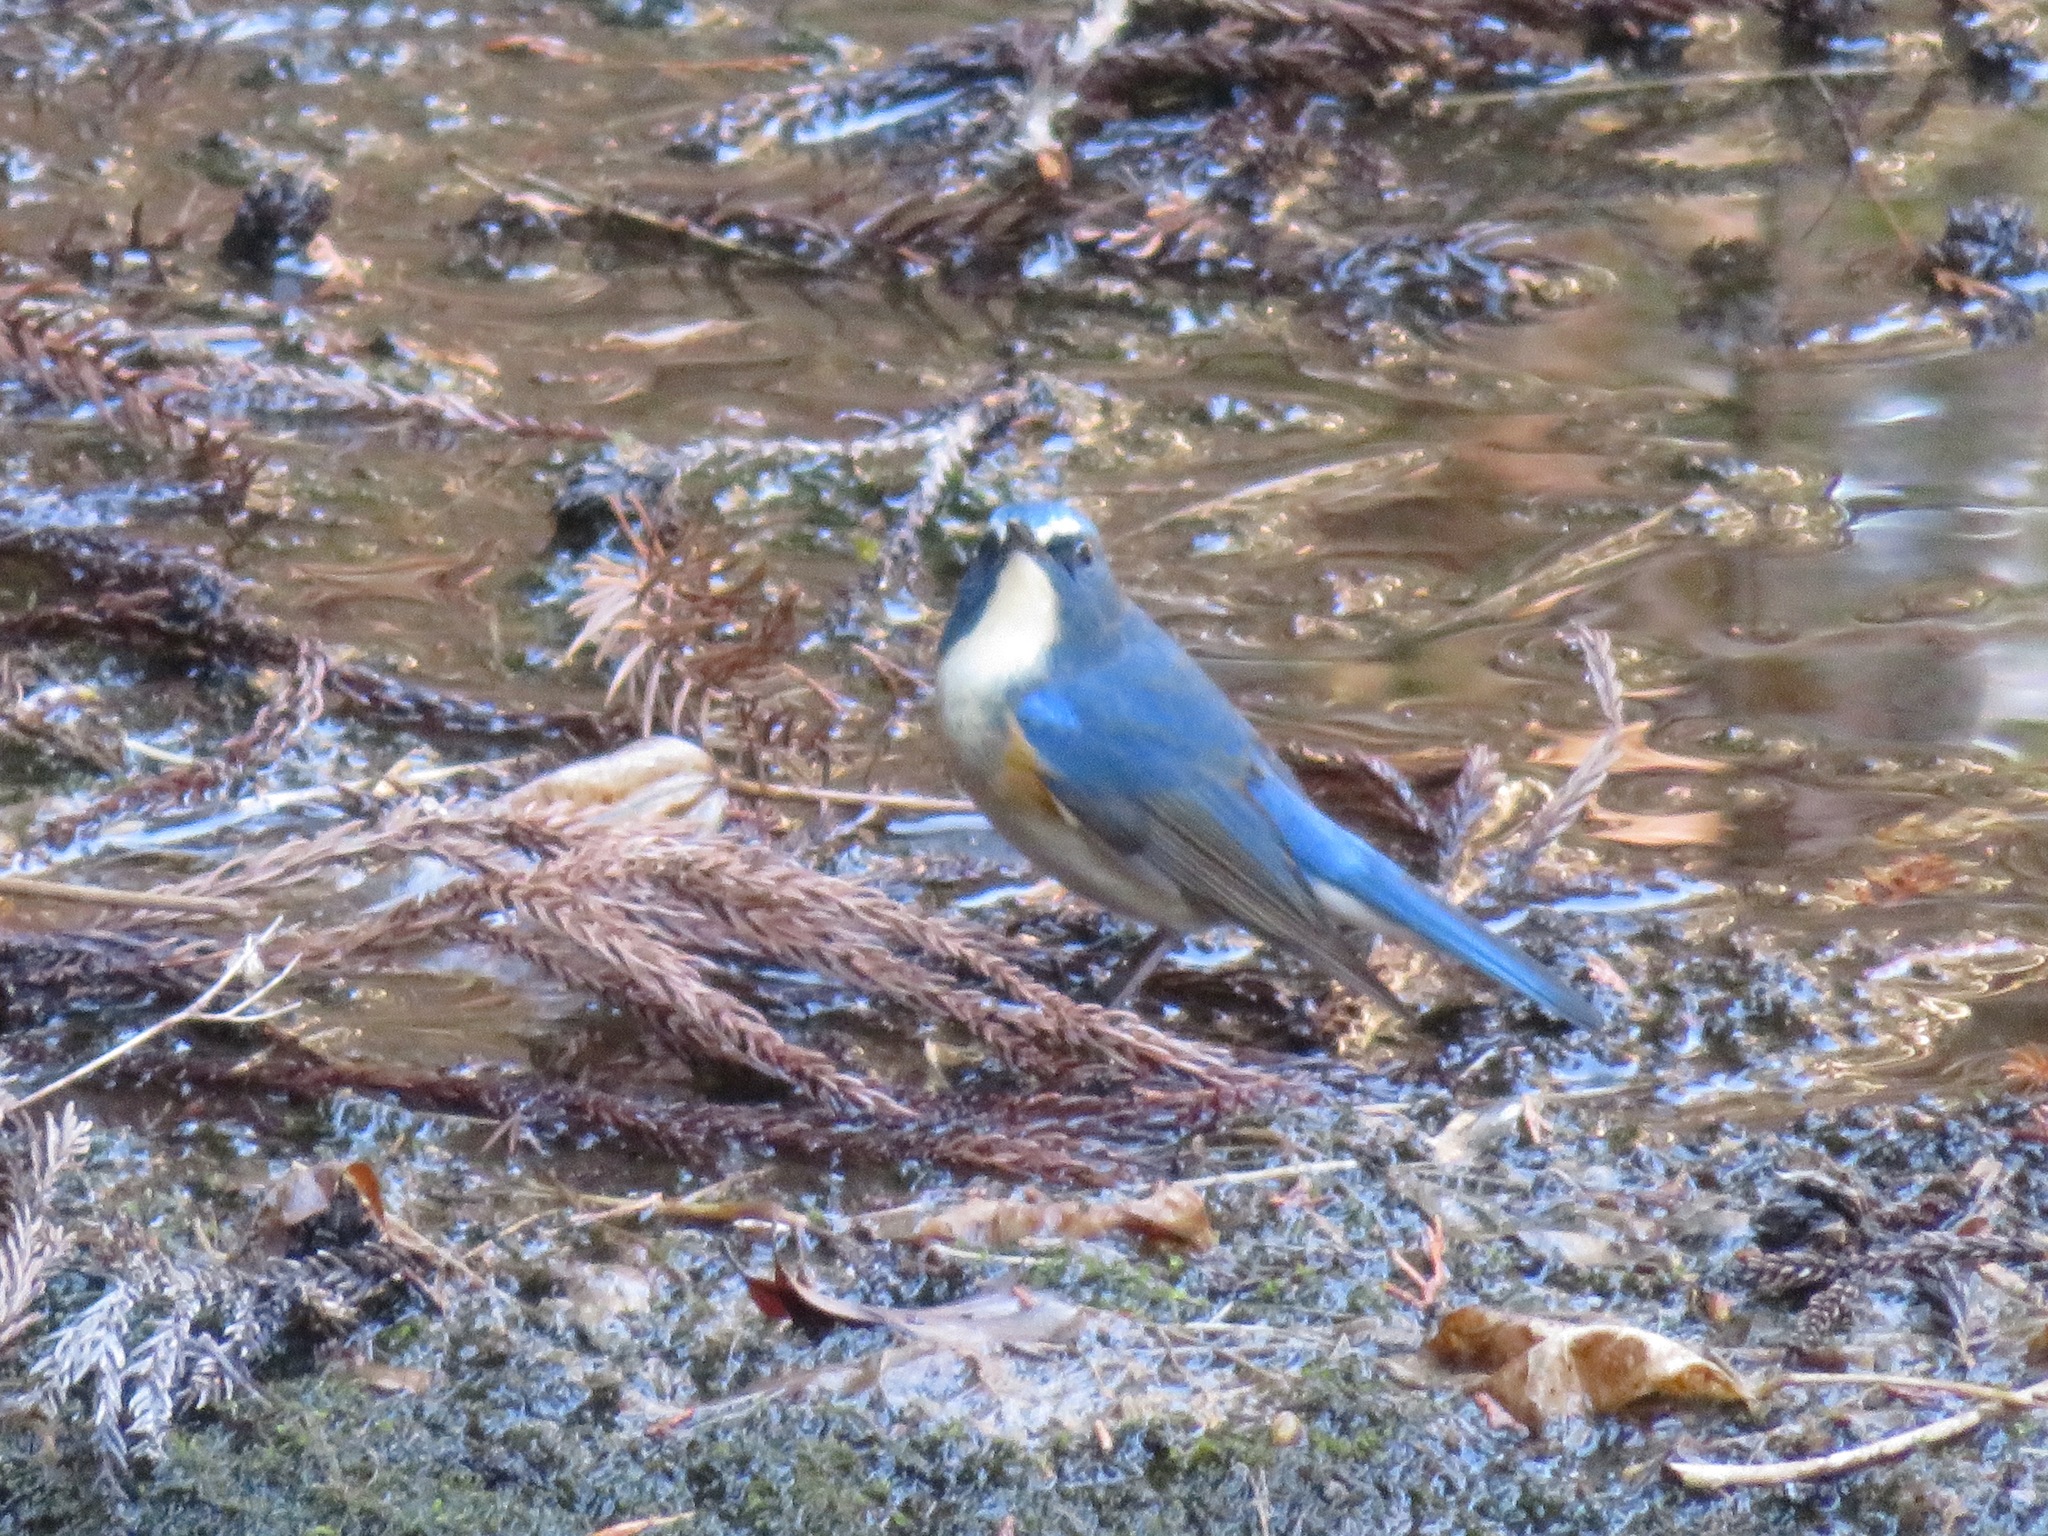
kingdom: Animalia
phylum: Chordata
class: Aves
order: Passeriformes
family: Muscicapidae
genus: Tarsiger
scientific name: Tarsiger cyanurus
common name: Red-flanked bluetail
